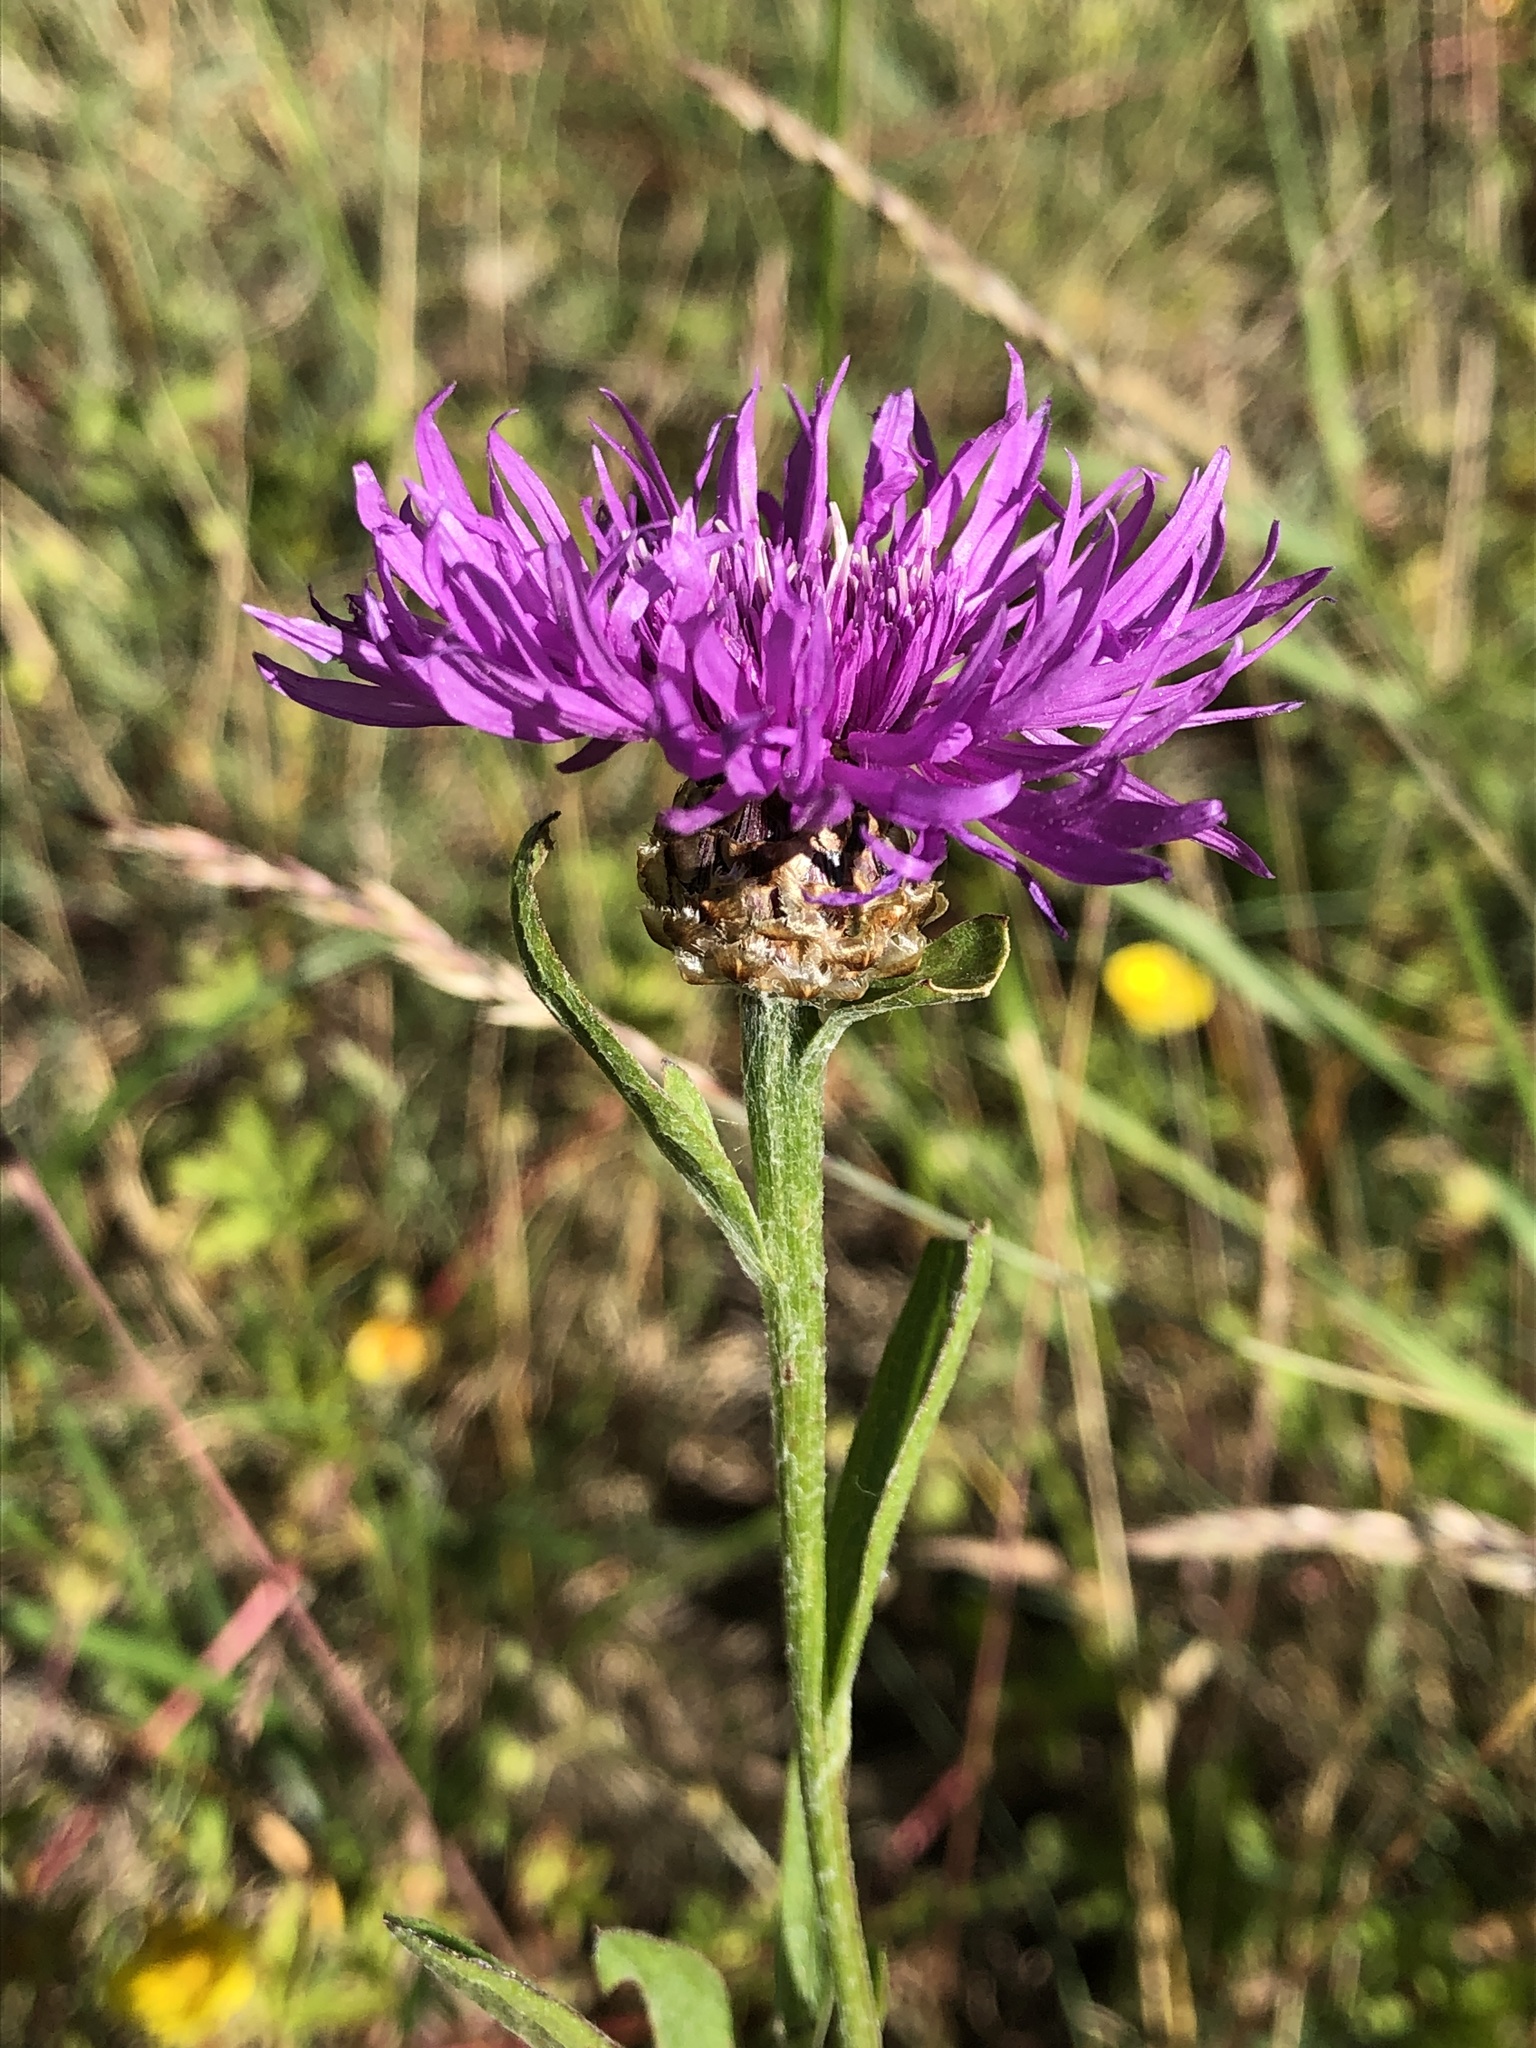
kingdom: Plantae
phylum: Tracheophyta
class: Magnoliopsida
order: Asterales
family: Asteraceae
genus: Centaurea
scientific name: Centaurea jacea
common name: Brown knapweed
